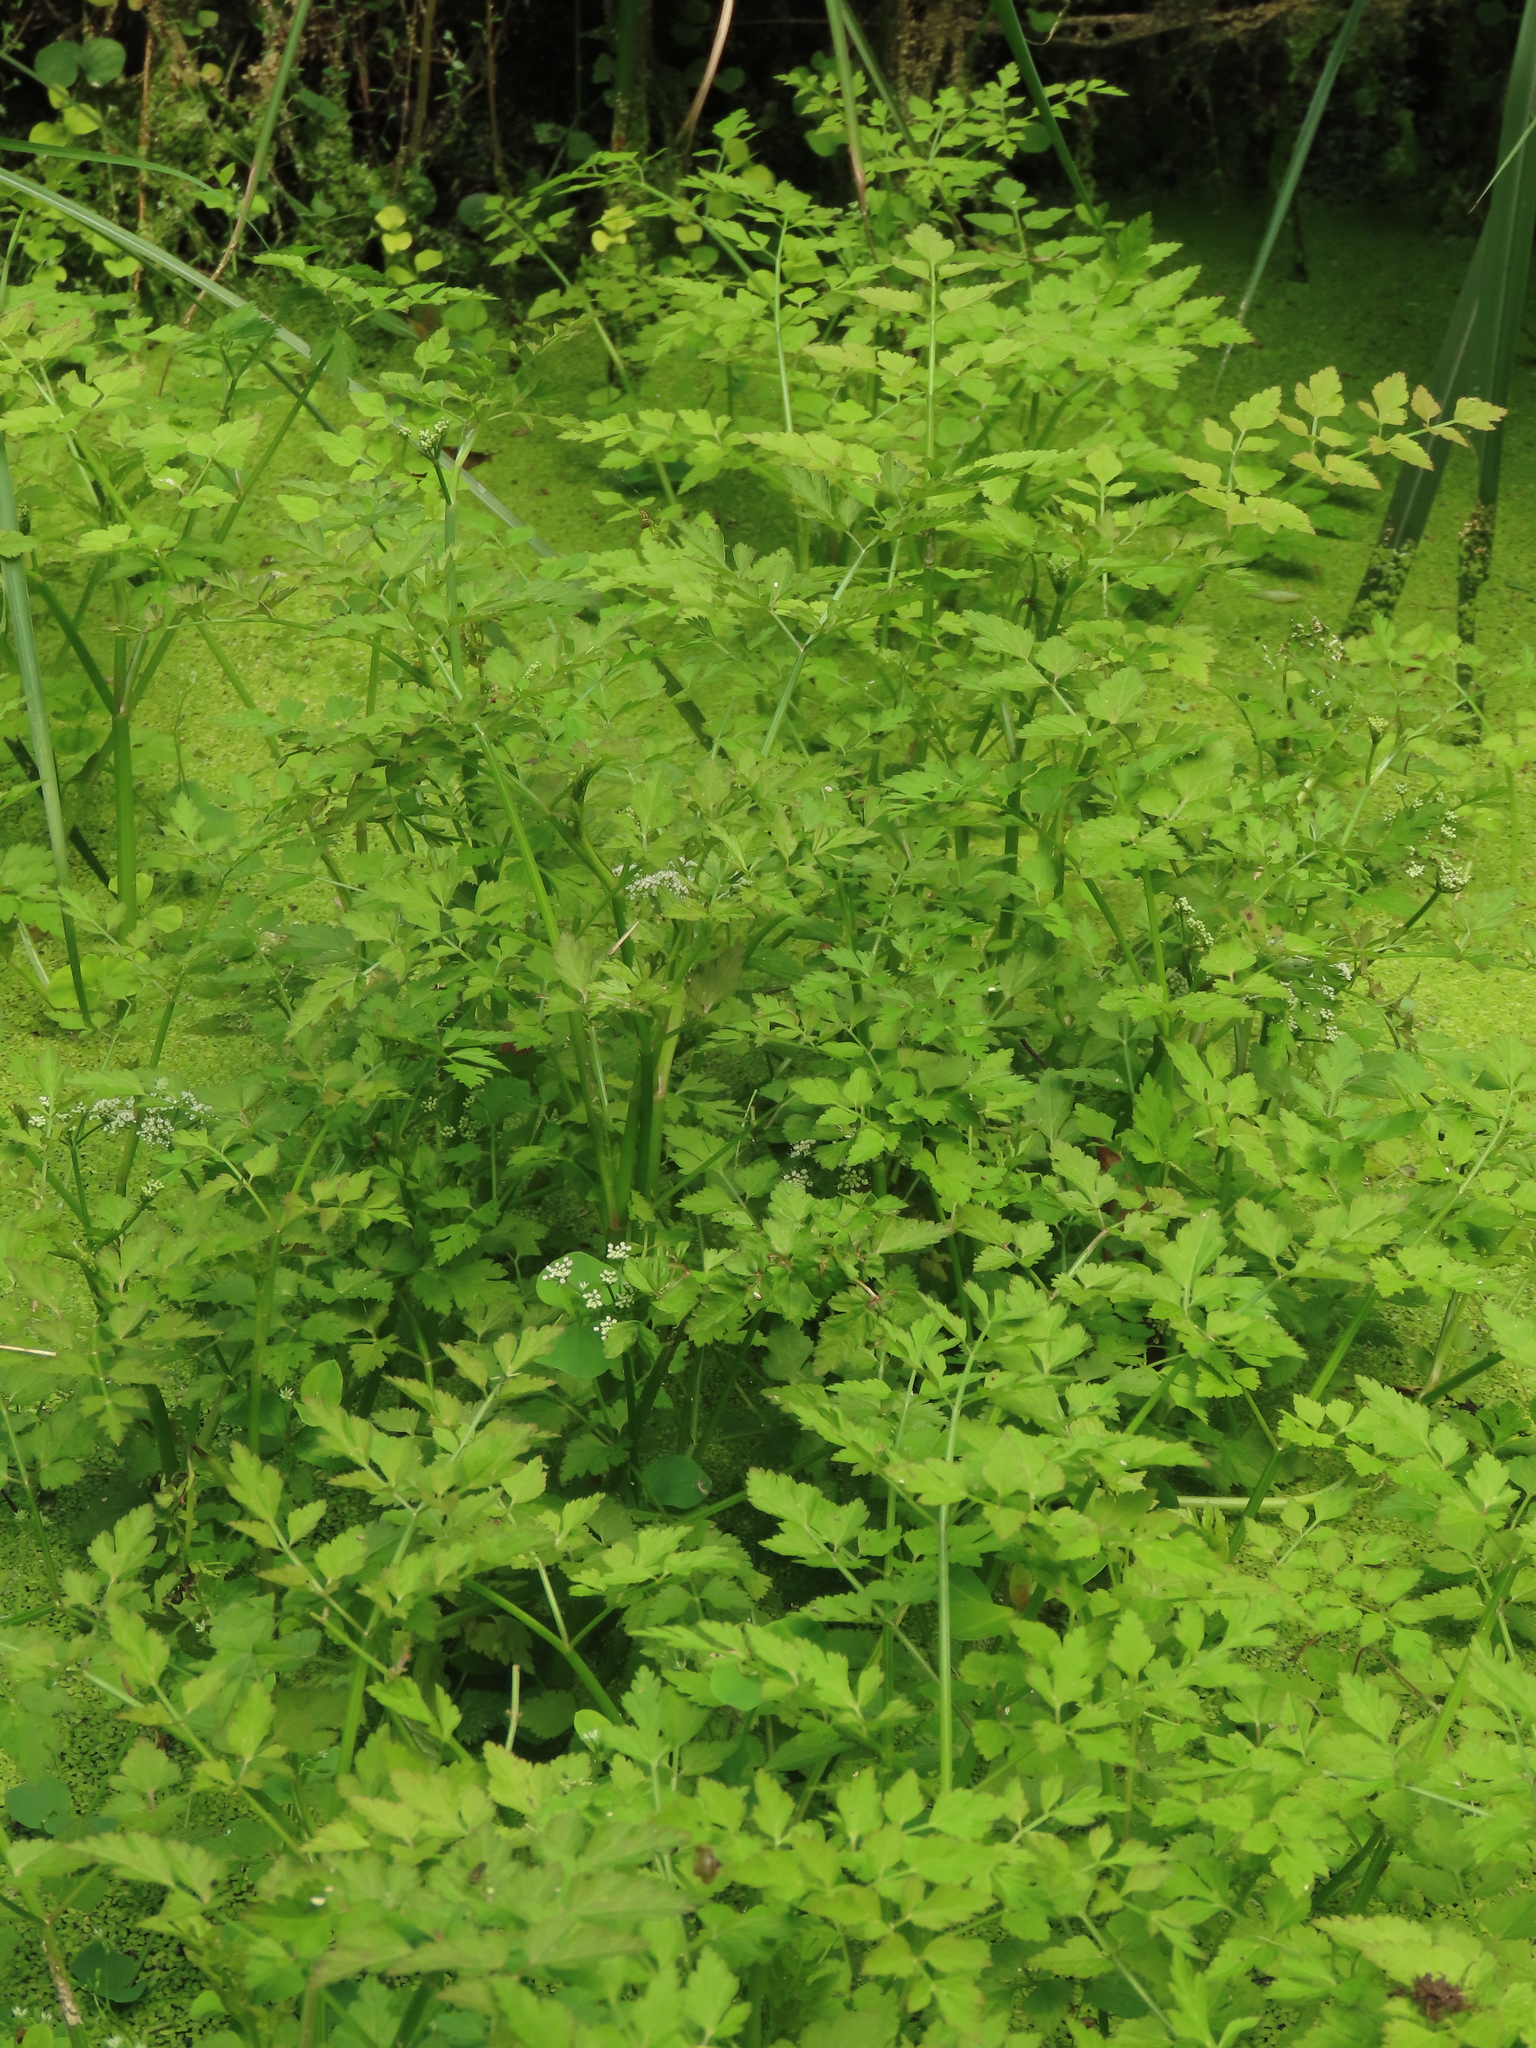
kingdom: Plantae
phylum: Tracheophyta
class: Magnoliopsida
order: Apiales
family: Apiaceae
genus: Oenanthe
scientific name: Oenanthe javanica
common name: Java water-dropwort
